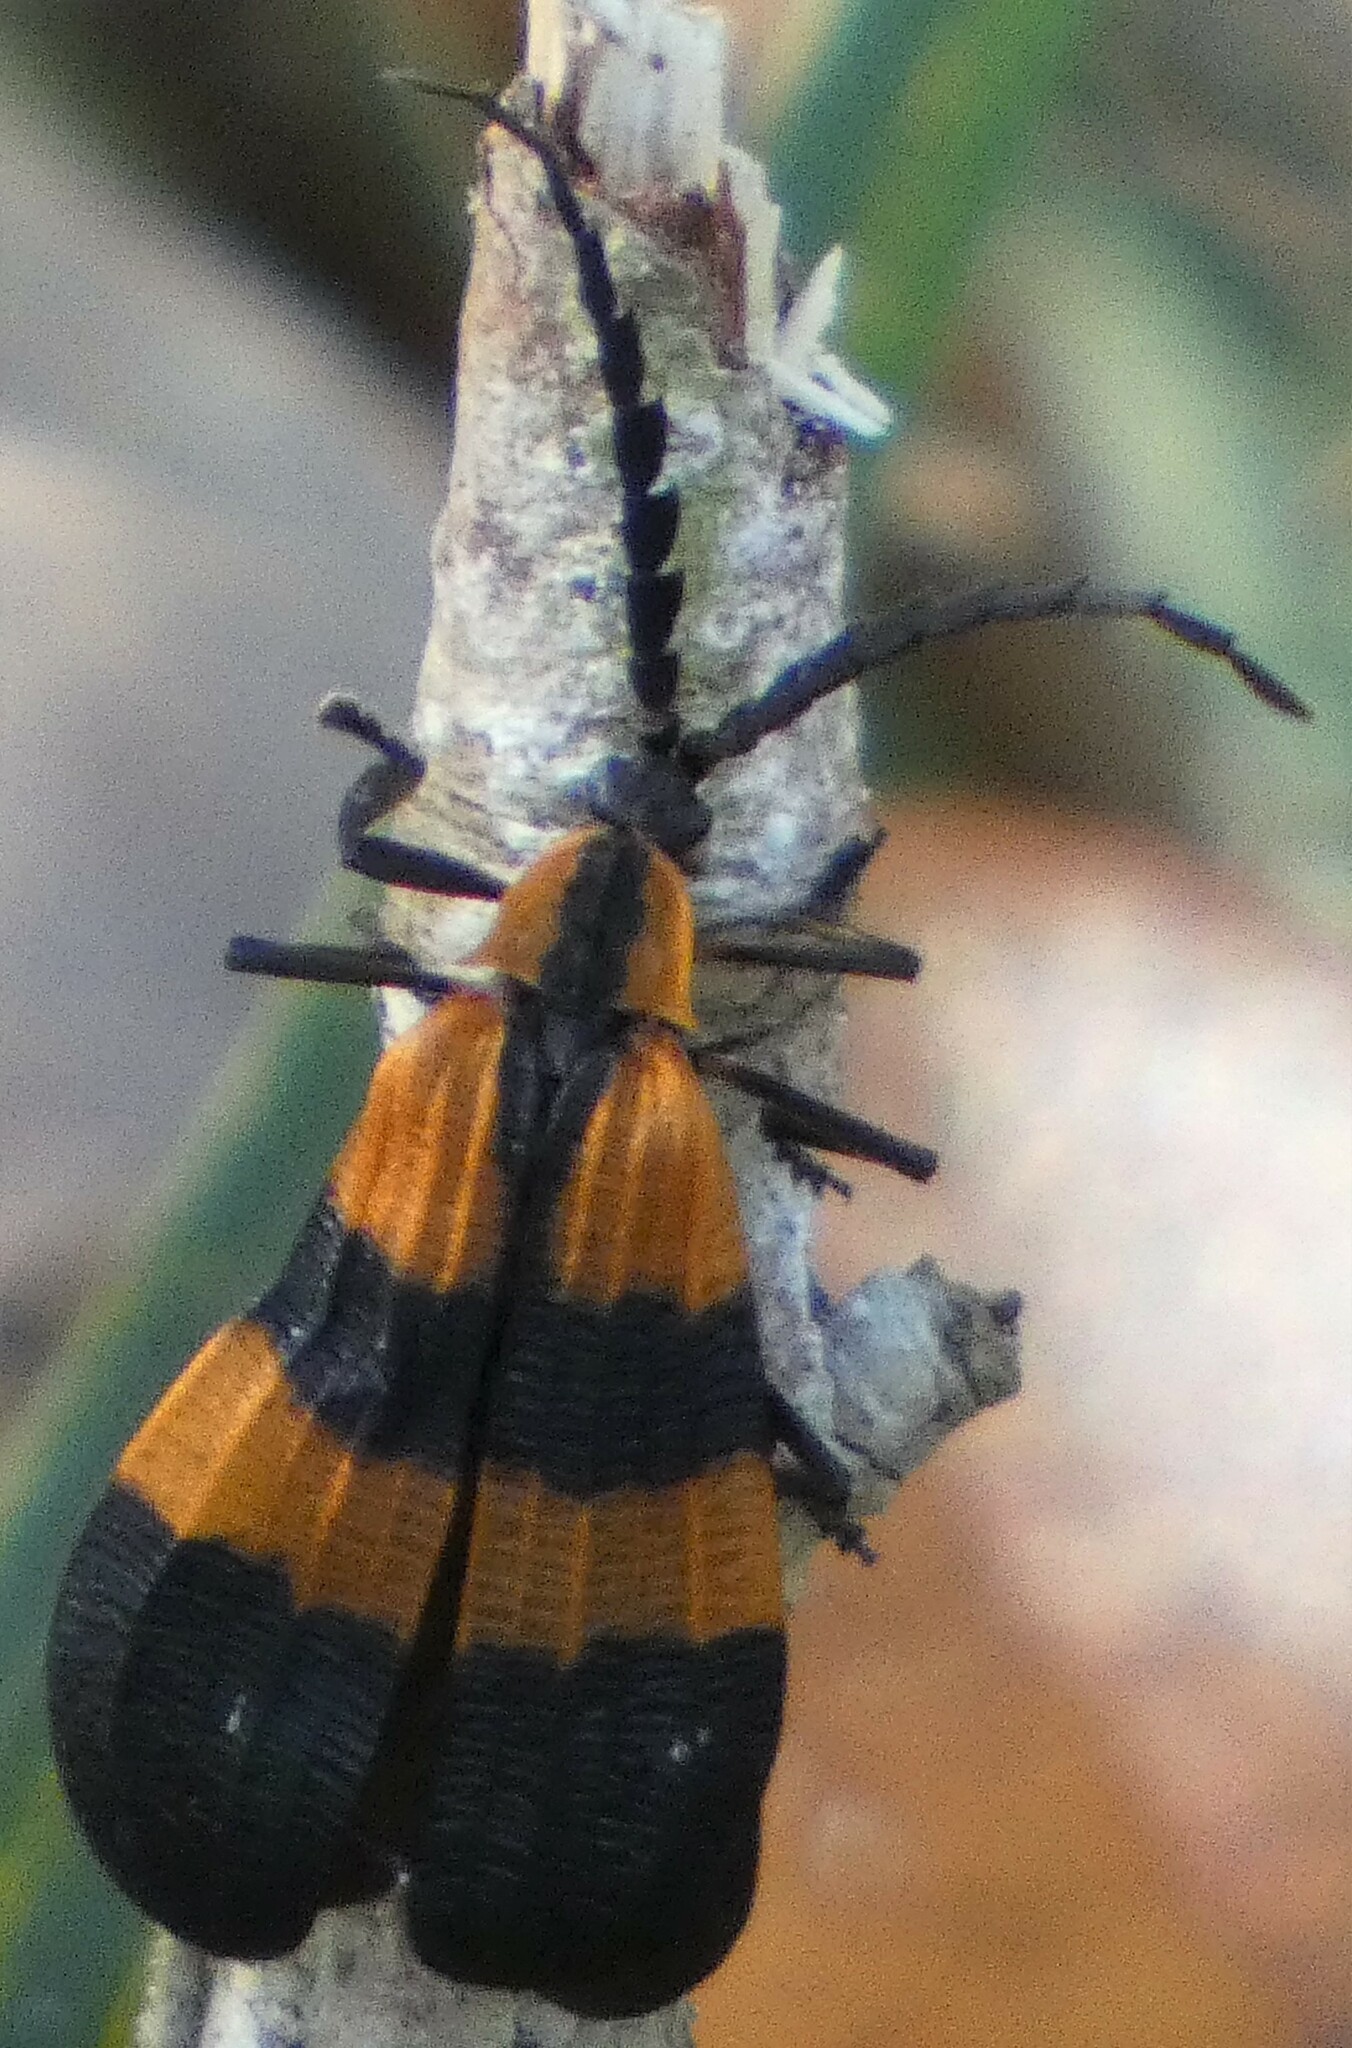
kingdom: Animalia
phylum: Arthropoda
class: Insecta
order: Coleoptera
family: Lycidae
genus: Calopteron
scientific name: Calopteron discrepans
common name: Banded net-winged beetle
